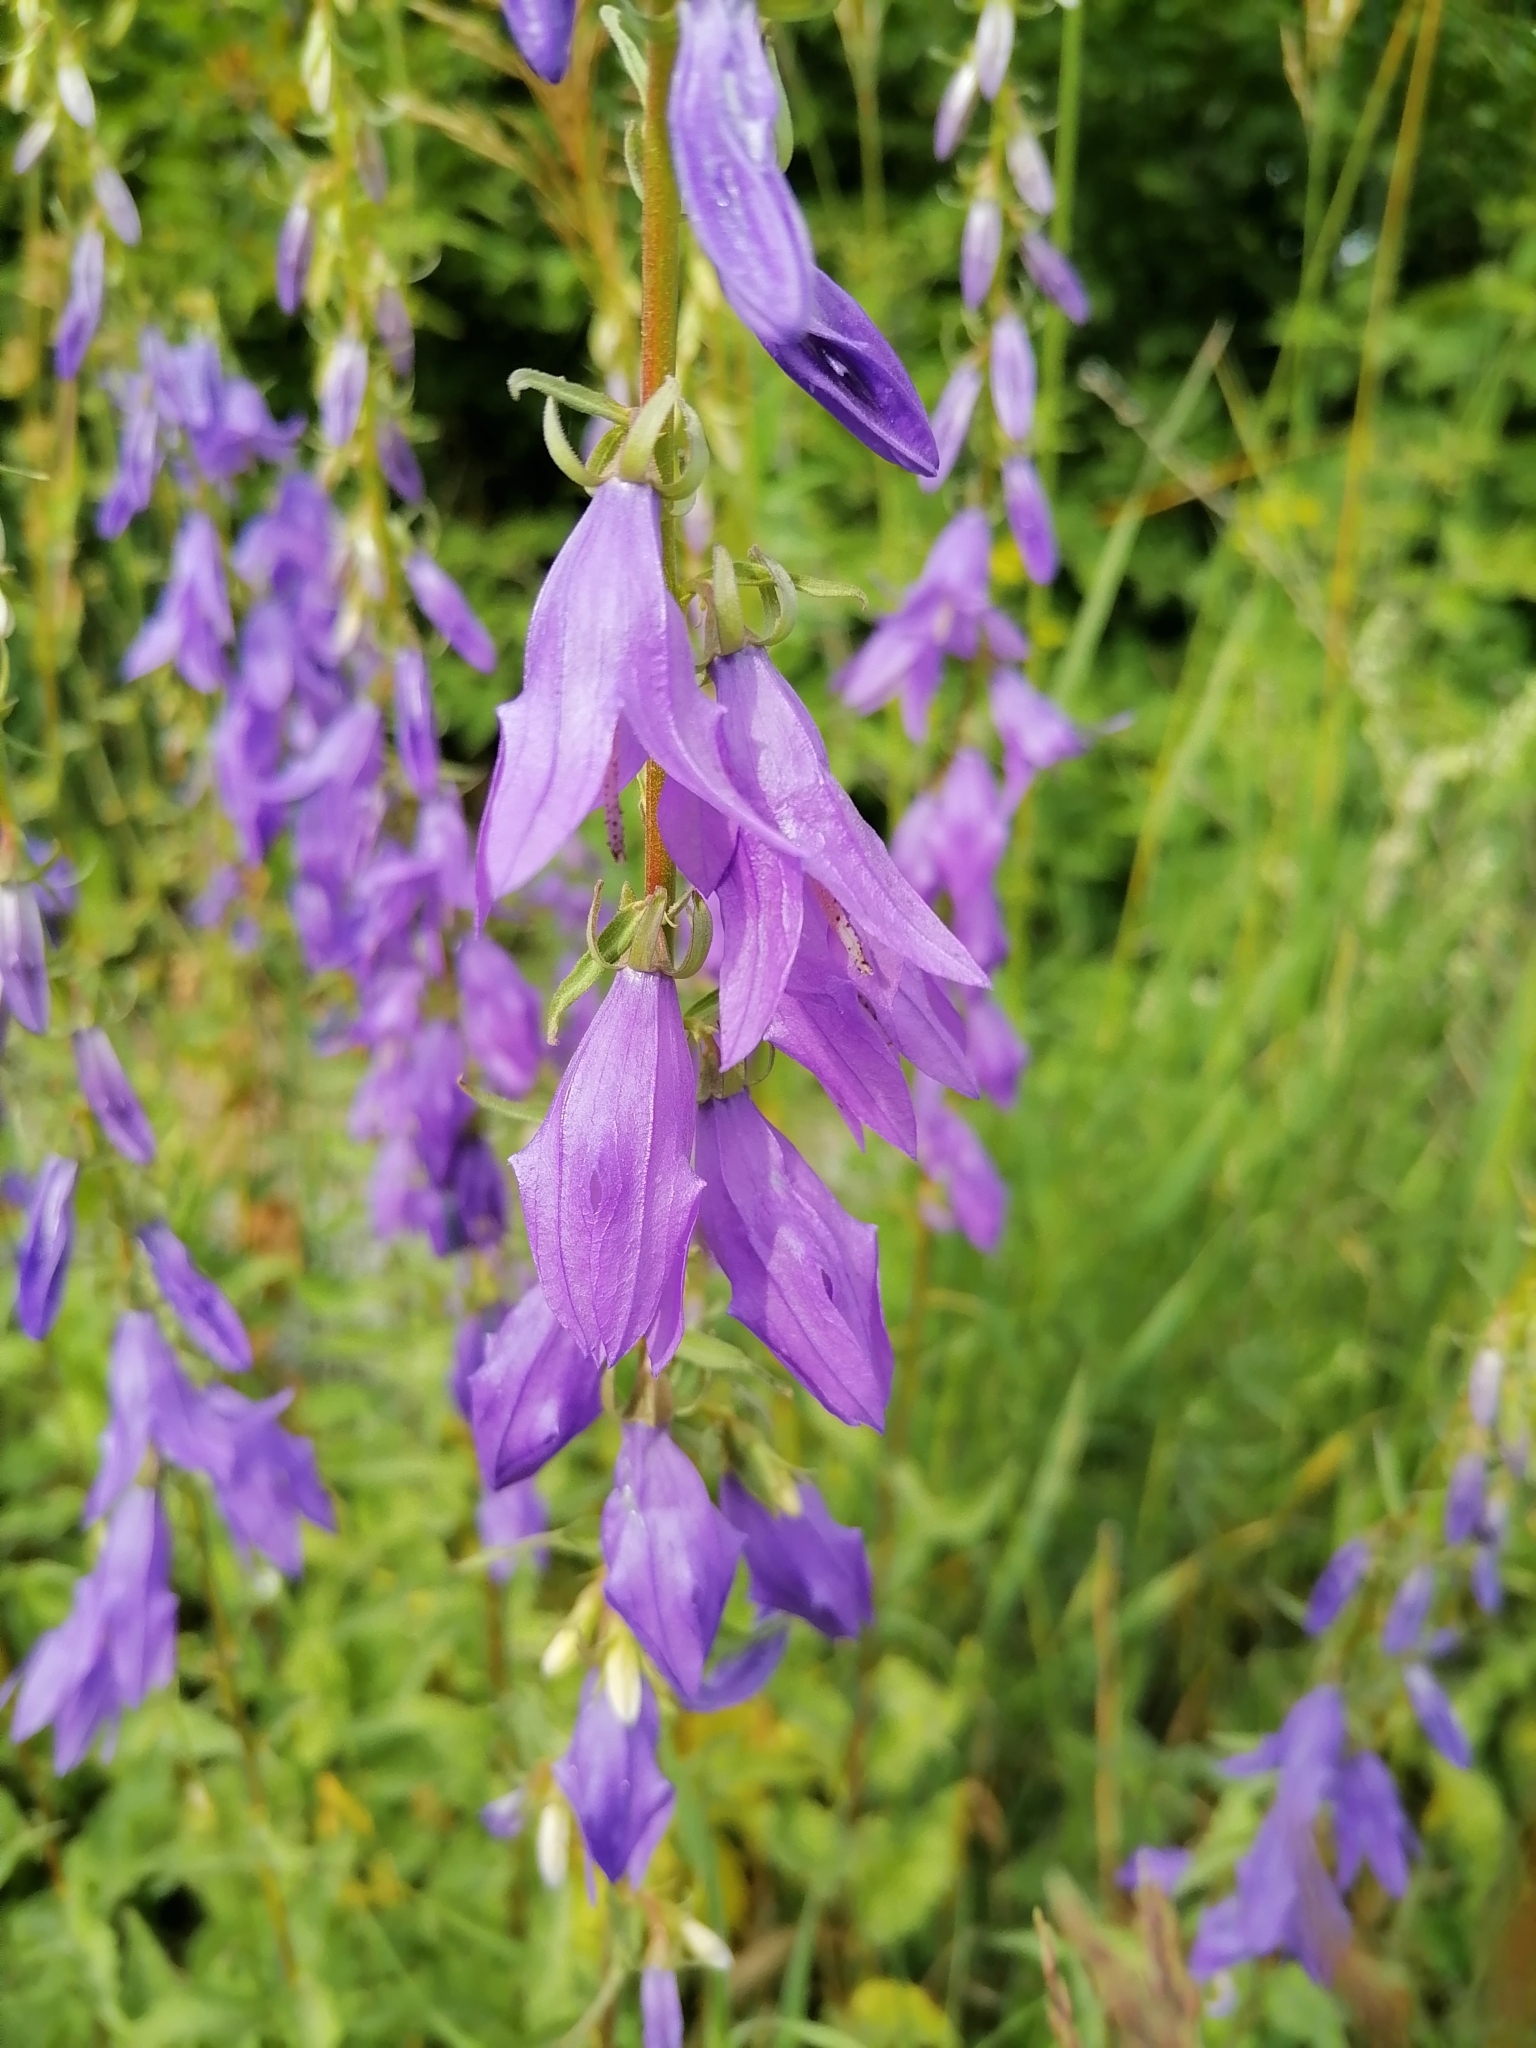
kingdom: Plantae
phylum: Tracheophyta
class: Magnoliopsida
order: Asterales
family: Campanulaceae
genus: Campanula
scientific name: Campanula rapunculoides
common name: Creeping bellflower
